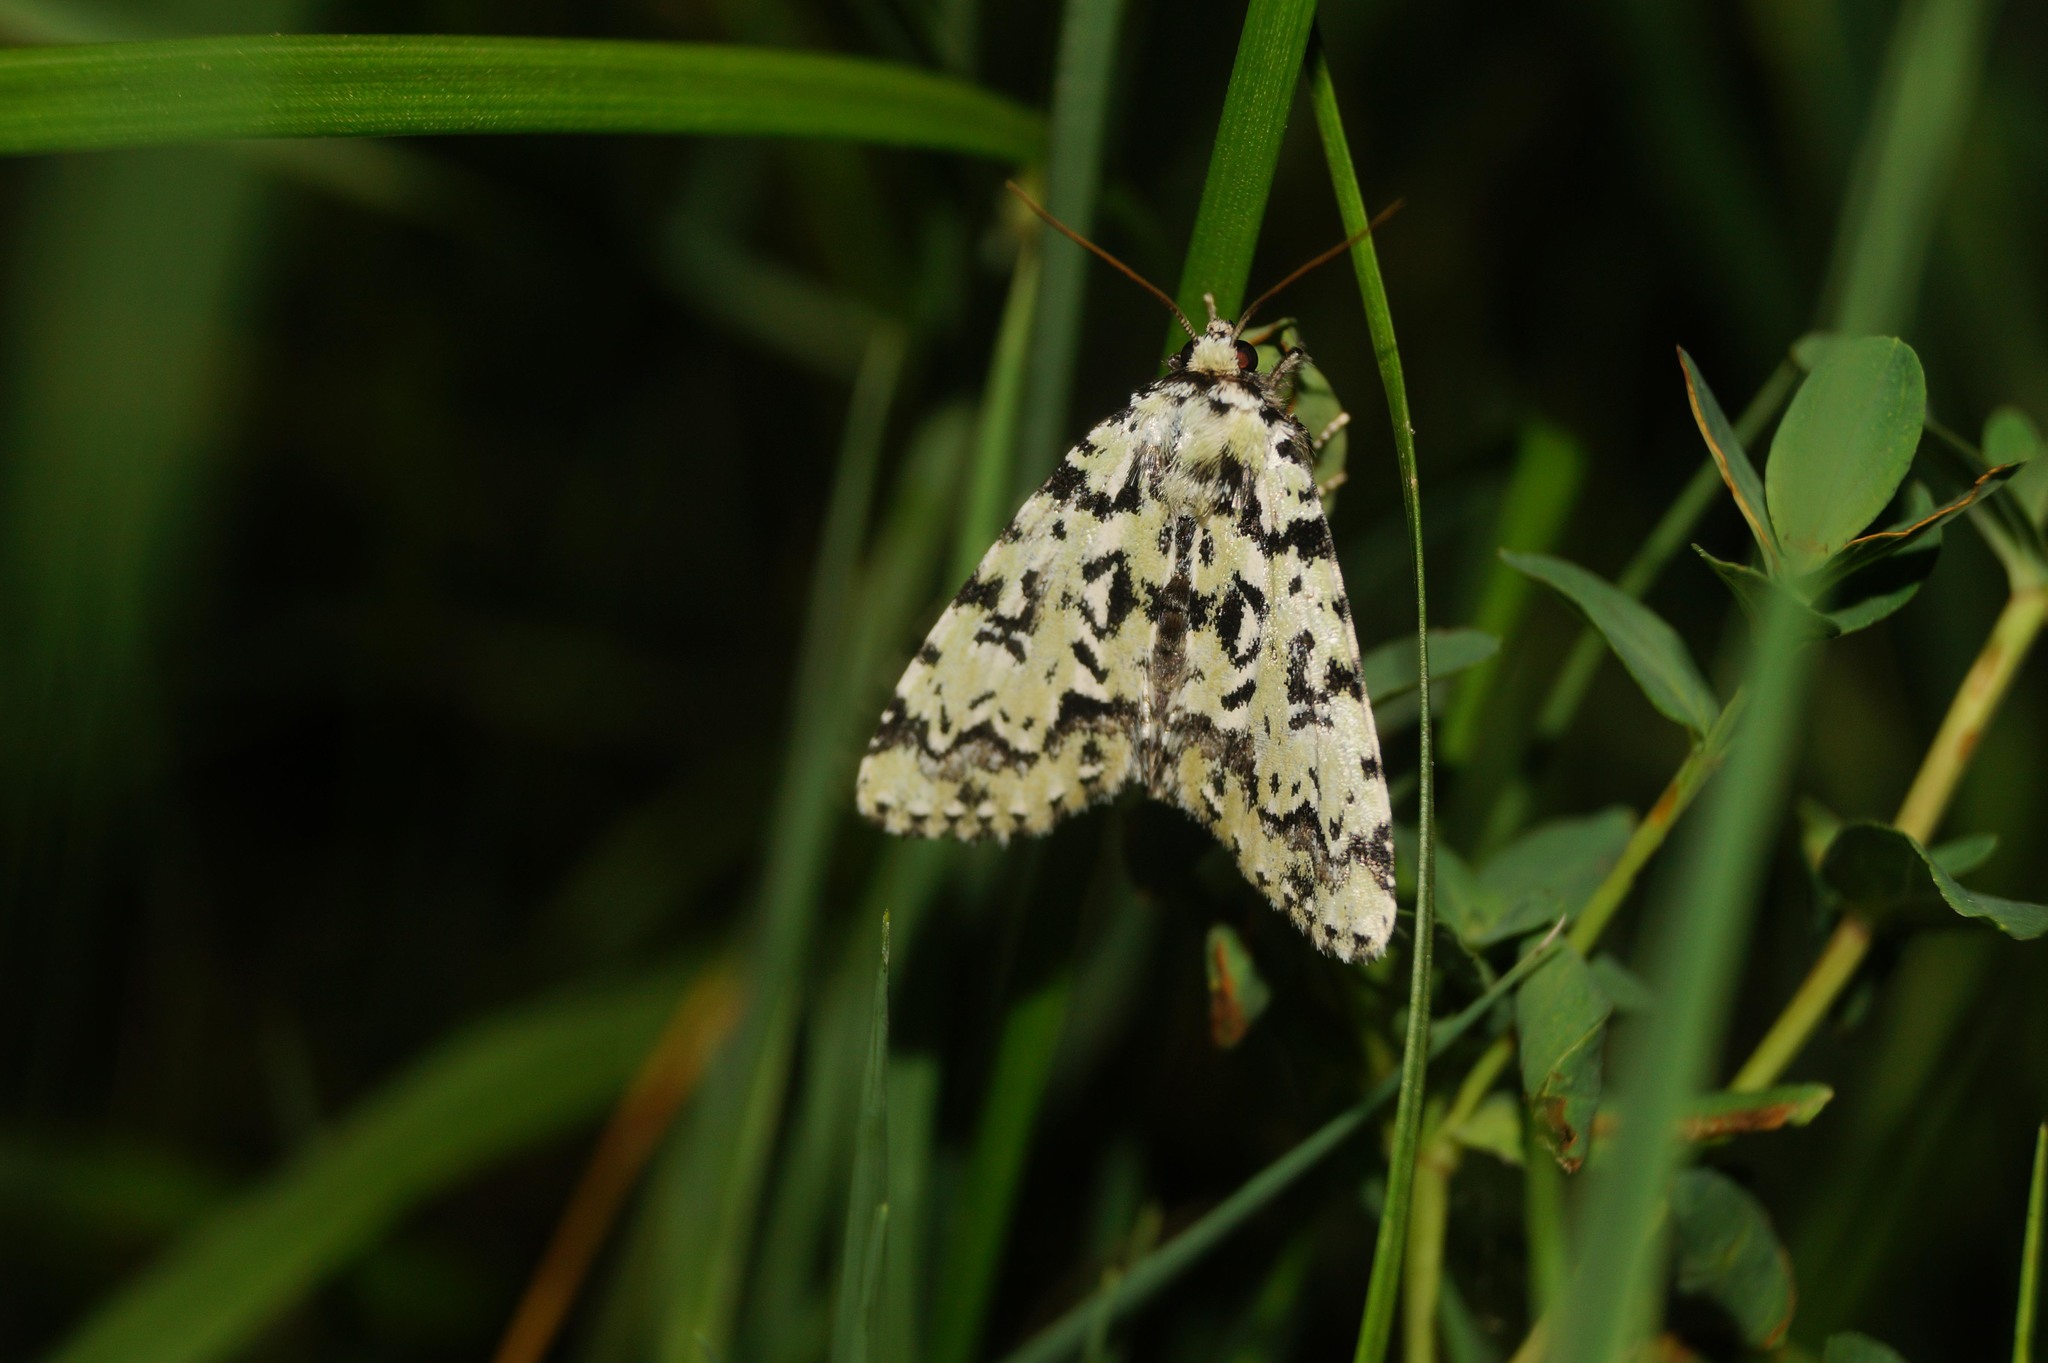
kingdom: Animalia
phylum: Arthropoda
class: Insecta
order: Lepidoptera
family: Noctuidae
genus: Moma
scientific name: Moma alpium
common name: Scarce merveille du jour
